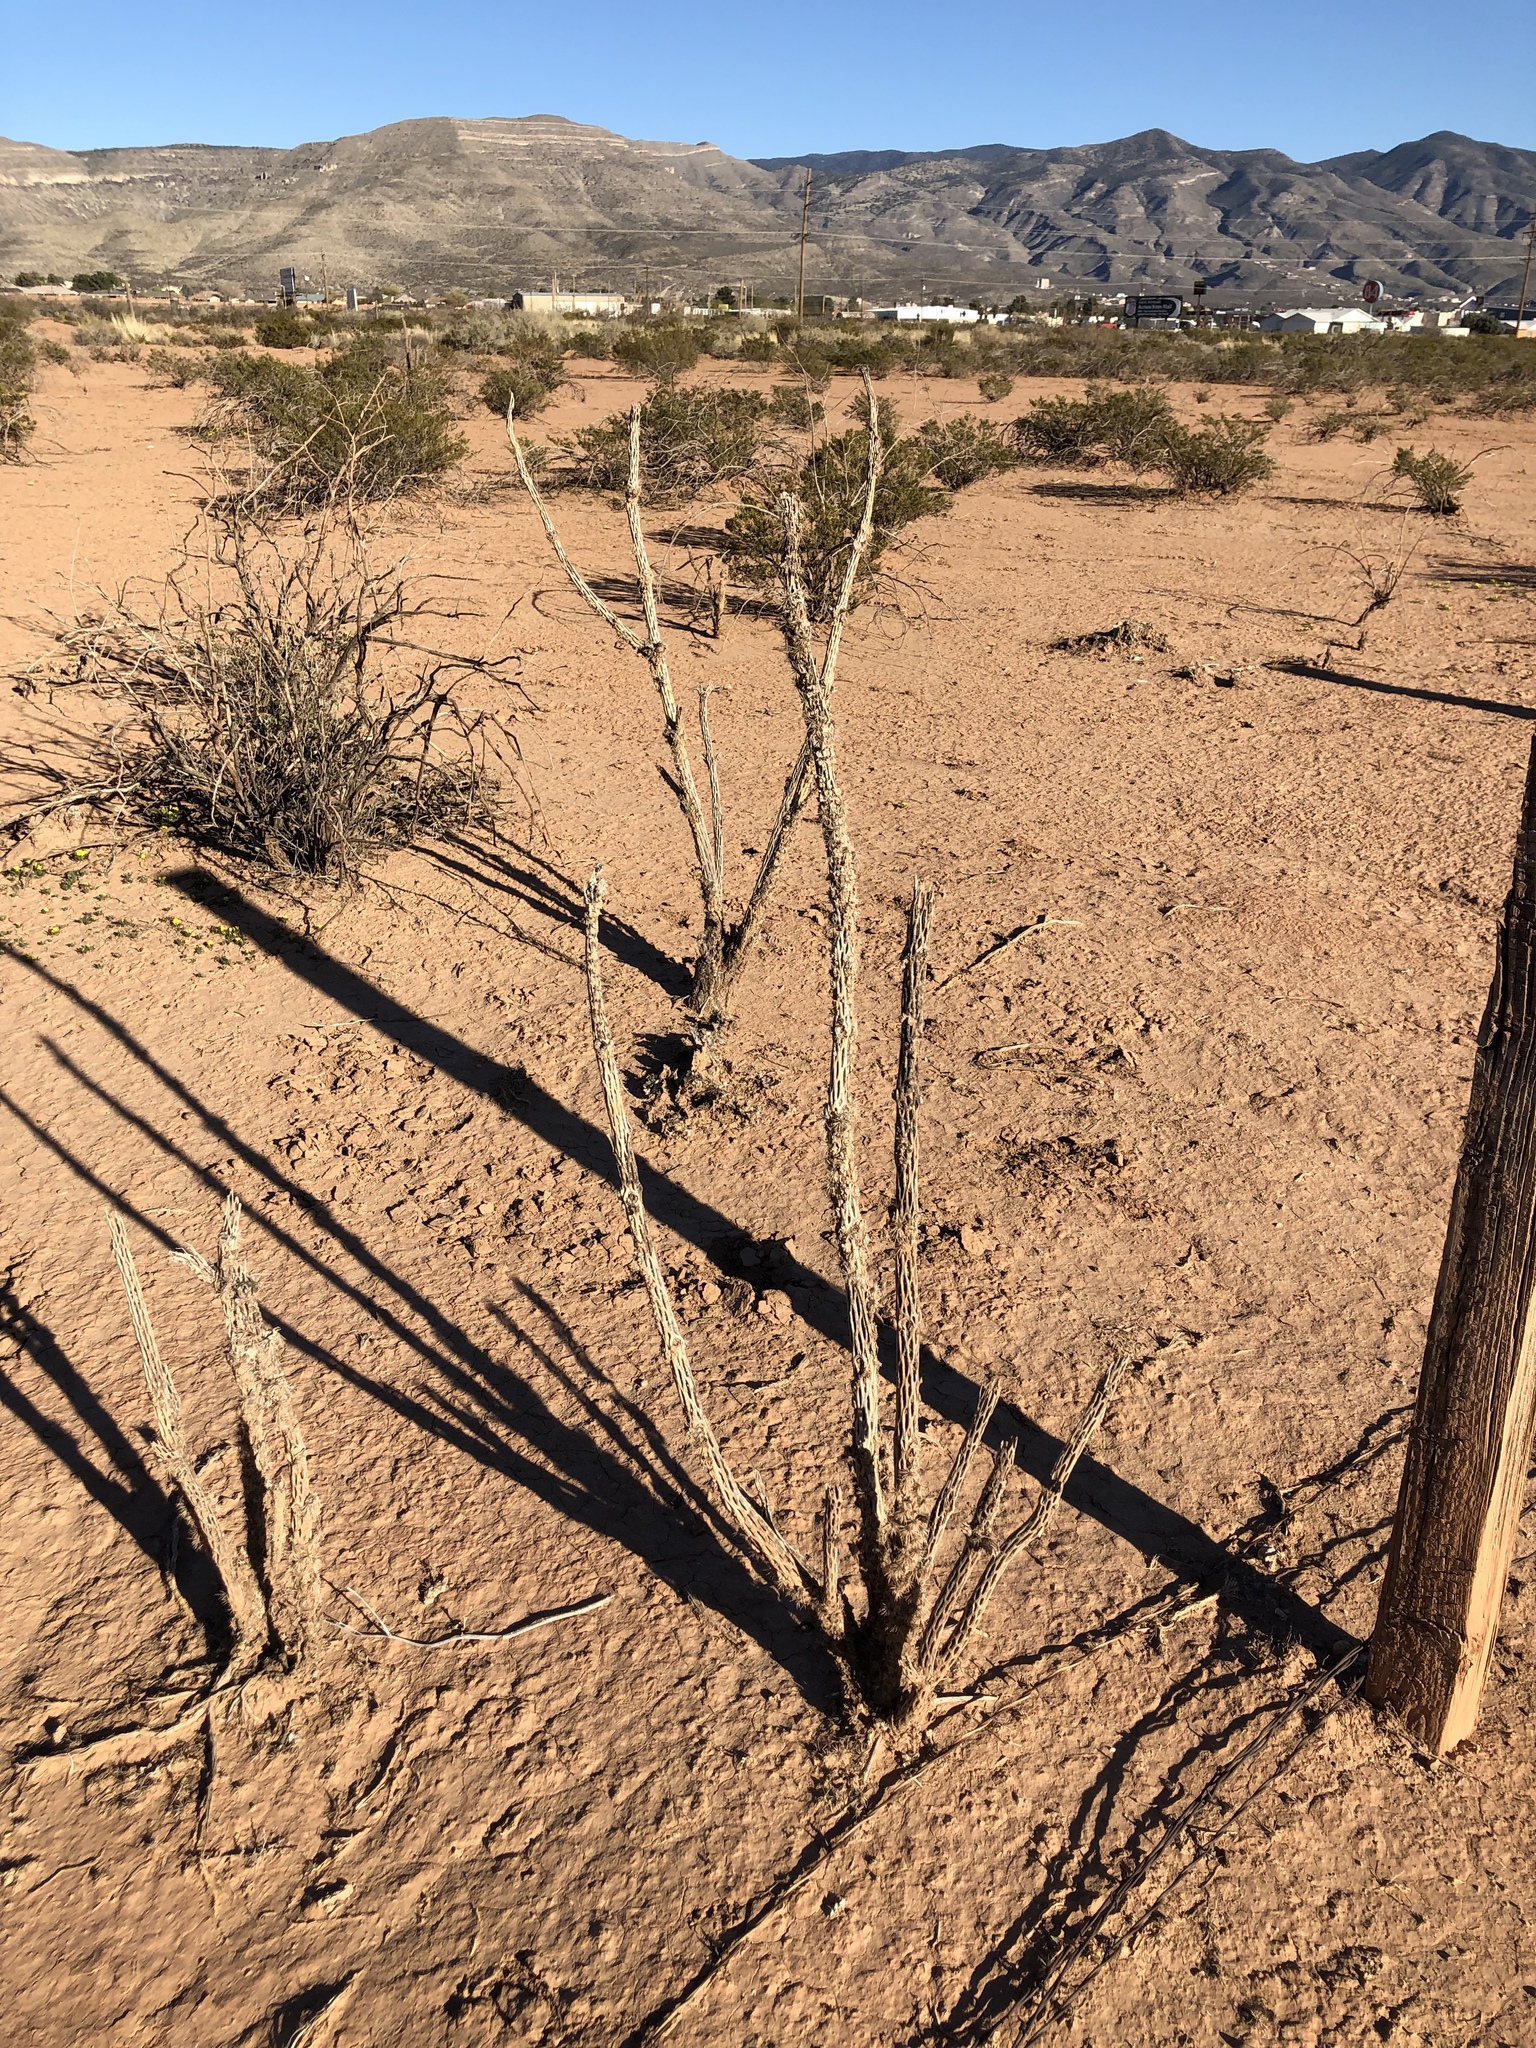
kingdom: Plantae
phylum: Tracheophyta
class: Magnoliopsida
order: Caryophyllales
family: Cactaceae
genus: Cylindropuntia
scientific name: Cylindropuntia imbricata
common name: Candelabrum cactus
